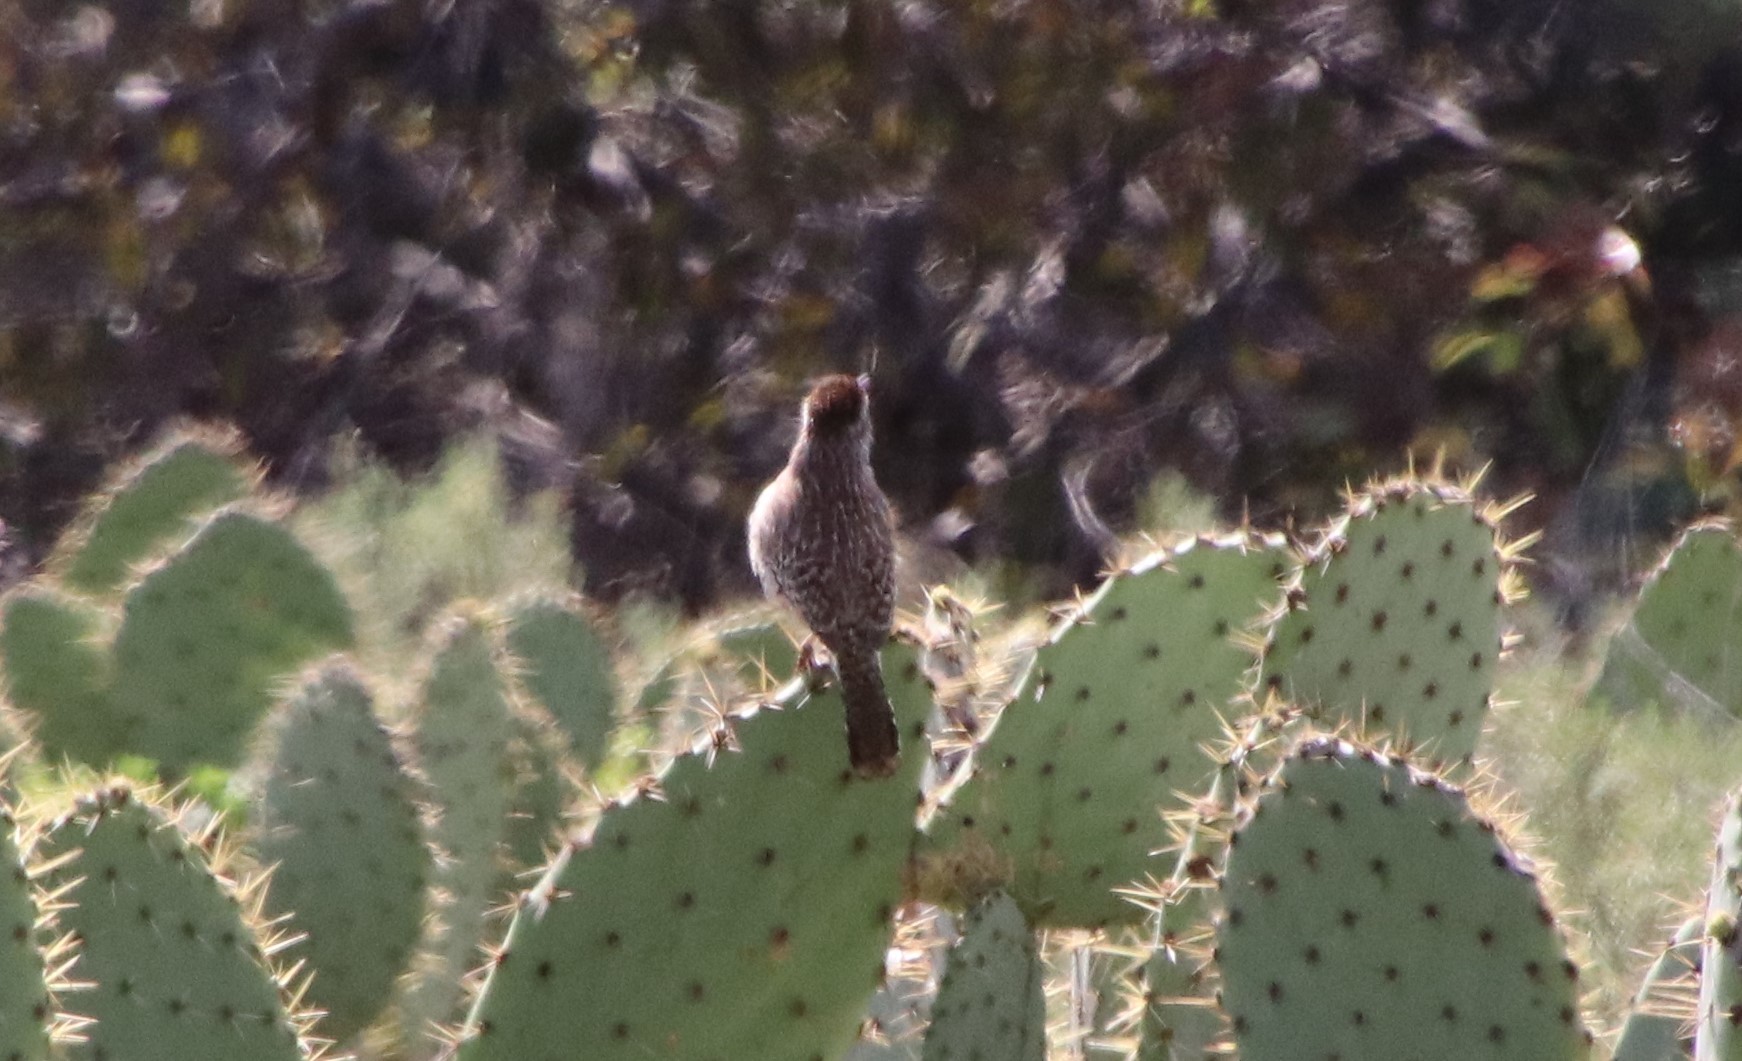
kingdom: Animalia
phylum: Chordata
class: Aves
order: Passeriformes
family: Troglodytidae
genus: Campylorhynchus
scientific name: Campylorhynchus brunneicapillus
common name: Cactus wren
